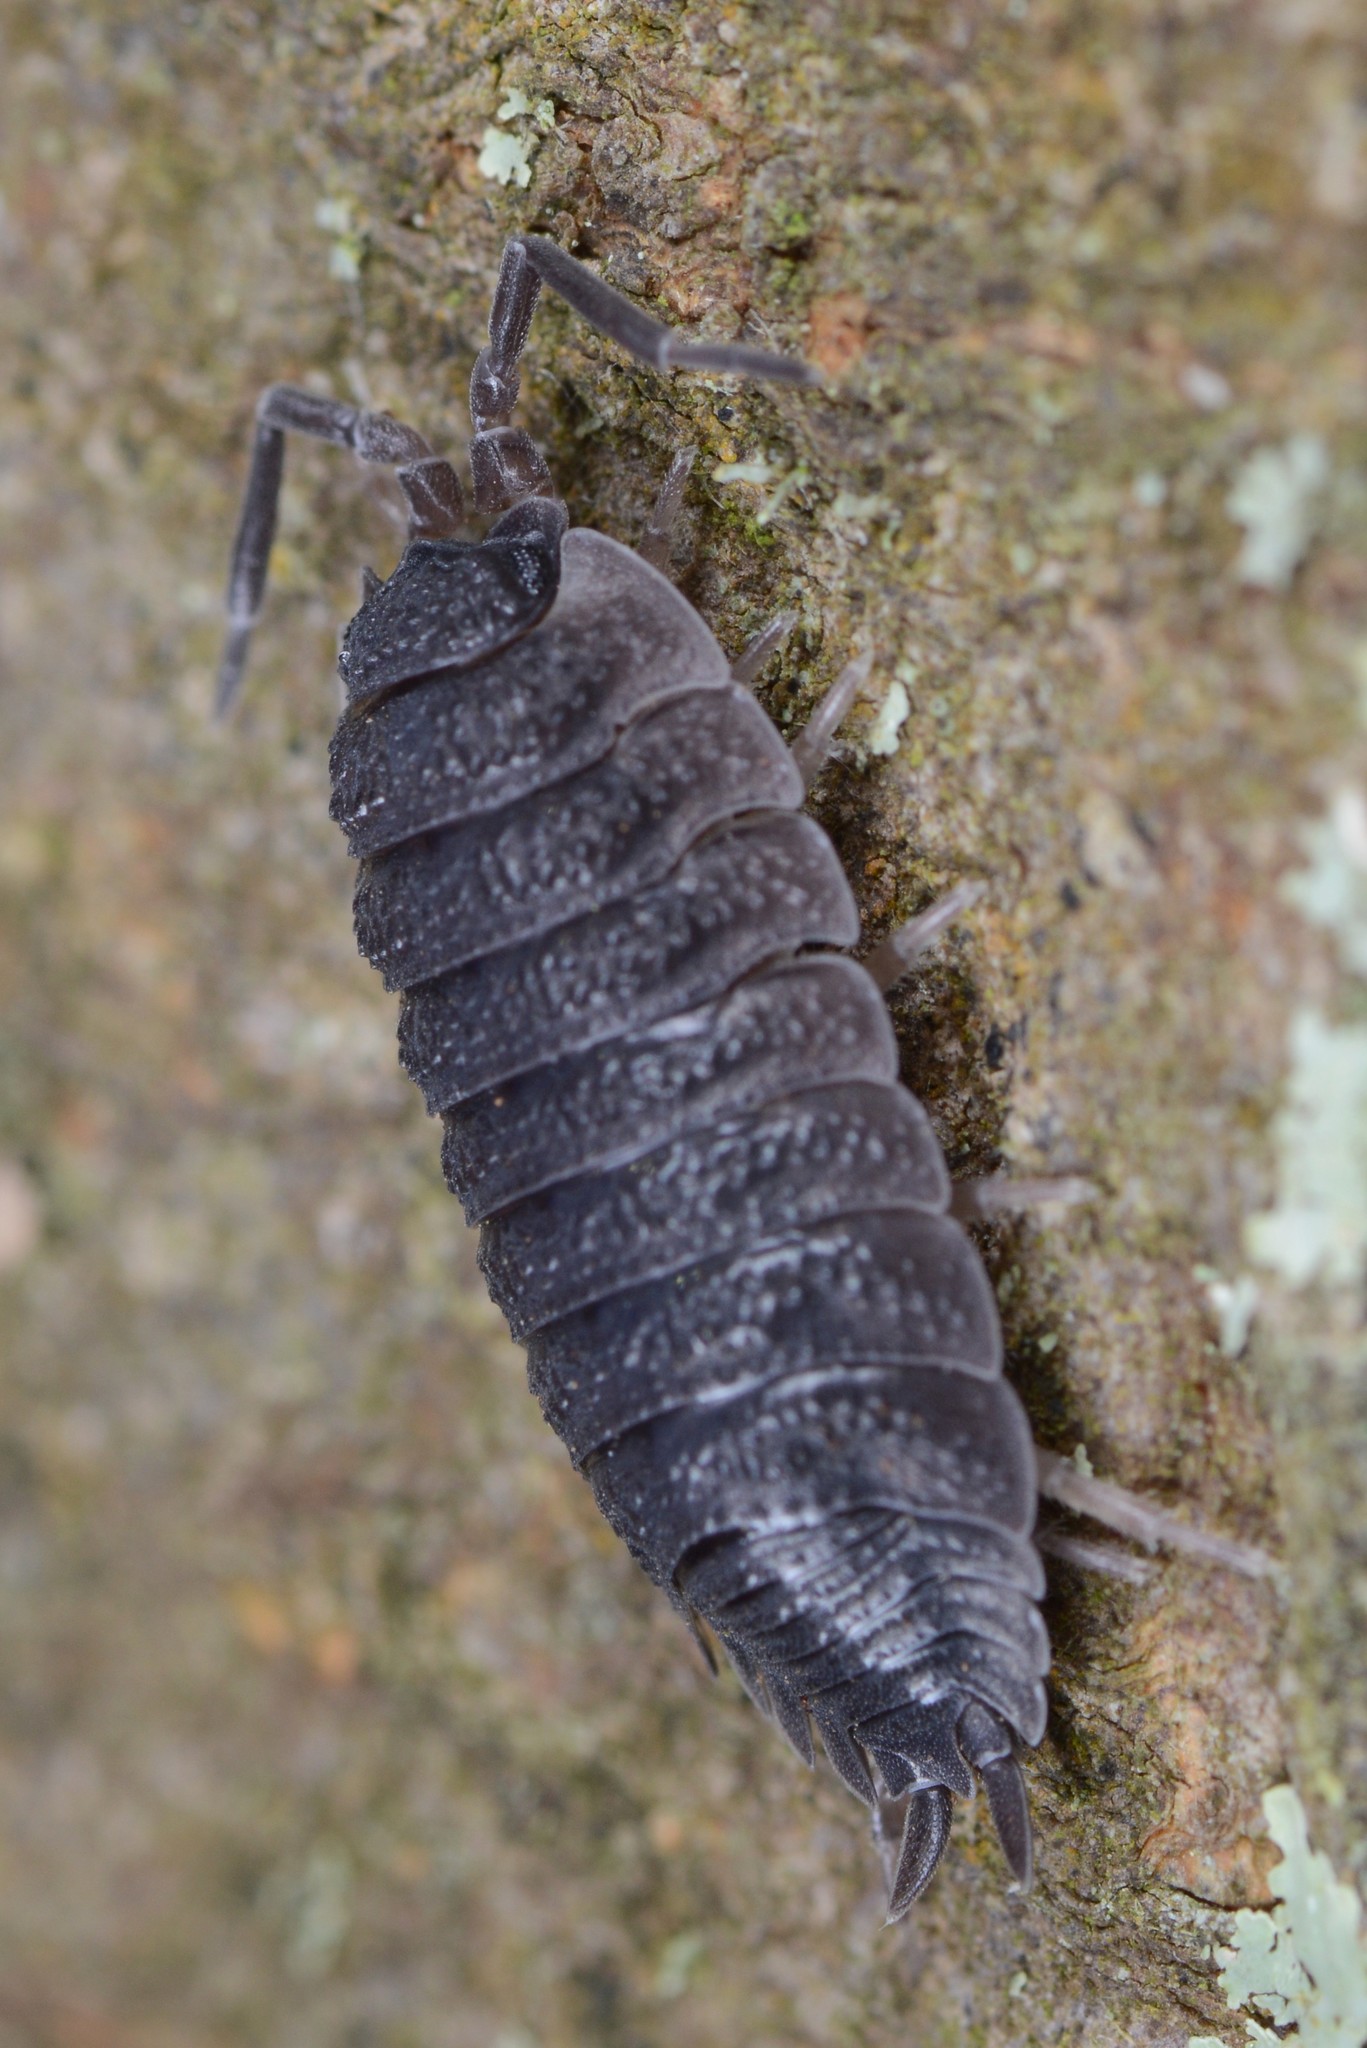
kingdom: Animalia
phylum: Arthropoda
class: Malacostraca
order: Isopoda
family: Porcellionidae
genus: Porcellio
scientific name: Porcellio scaber
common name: Common rough woodlouse
